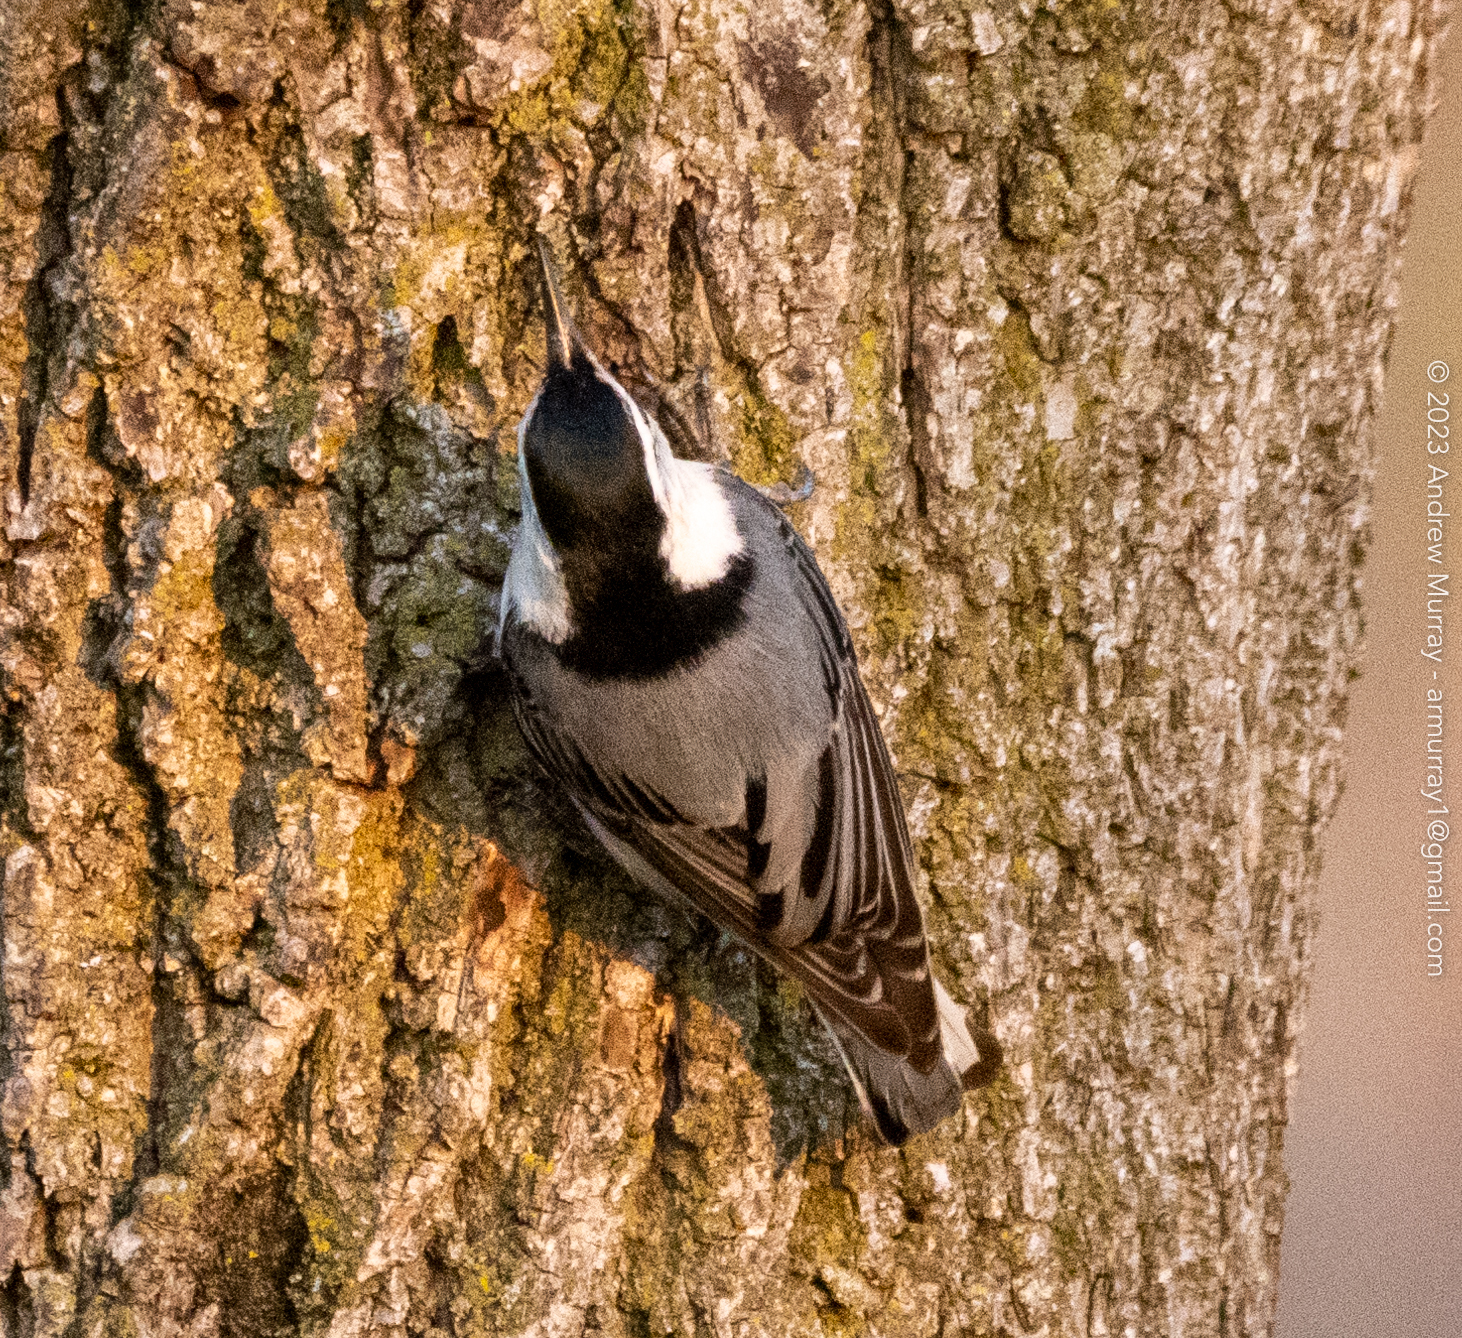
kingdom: Animalia
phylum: Chordata
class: Aves
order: Passeriformes
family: Sittidae
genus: Sitta
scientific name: Sitta carolinensis
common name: White-breasted nuthatch
